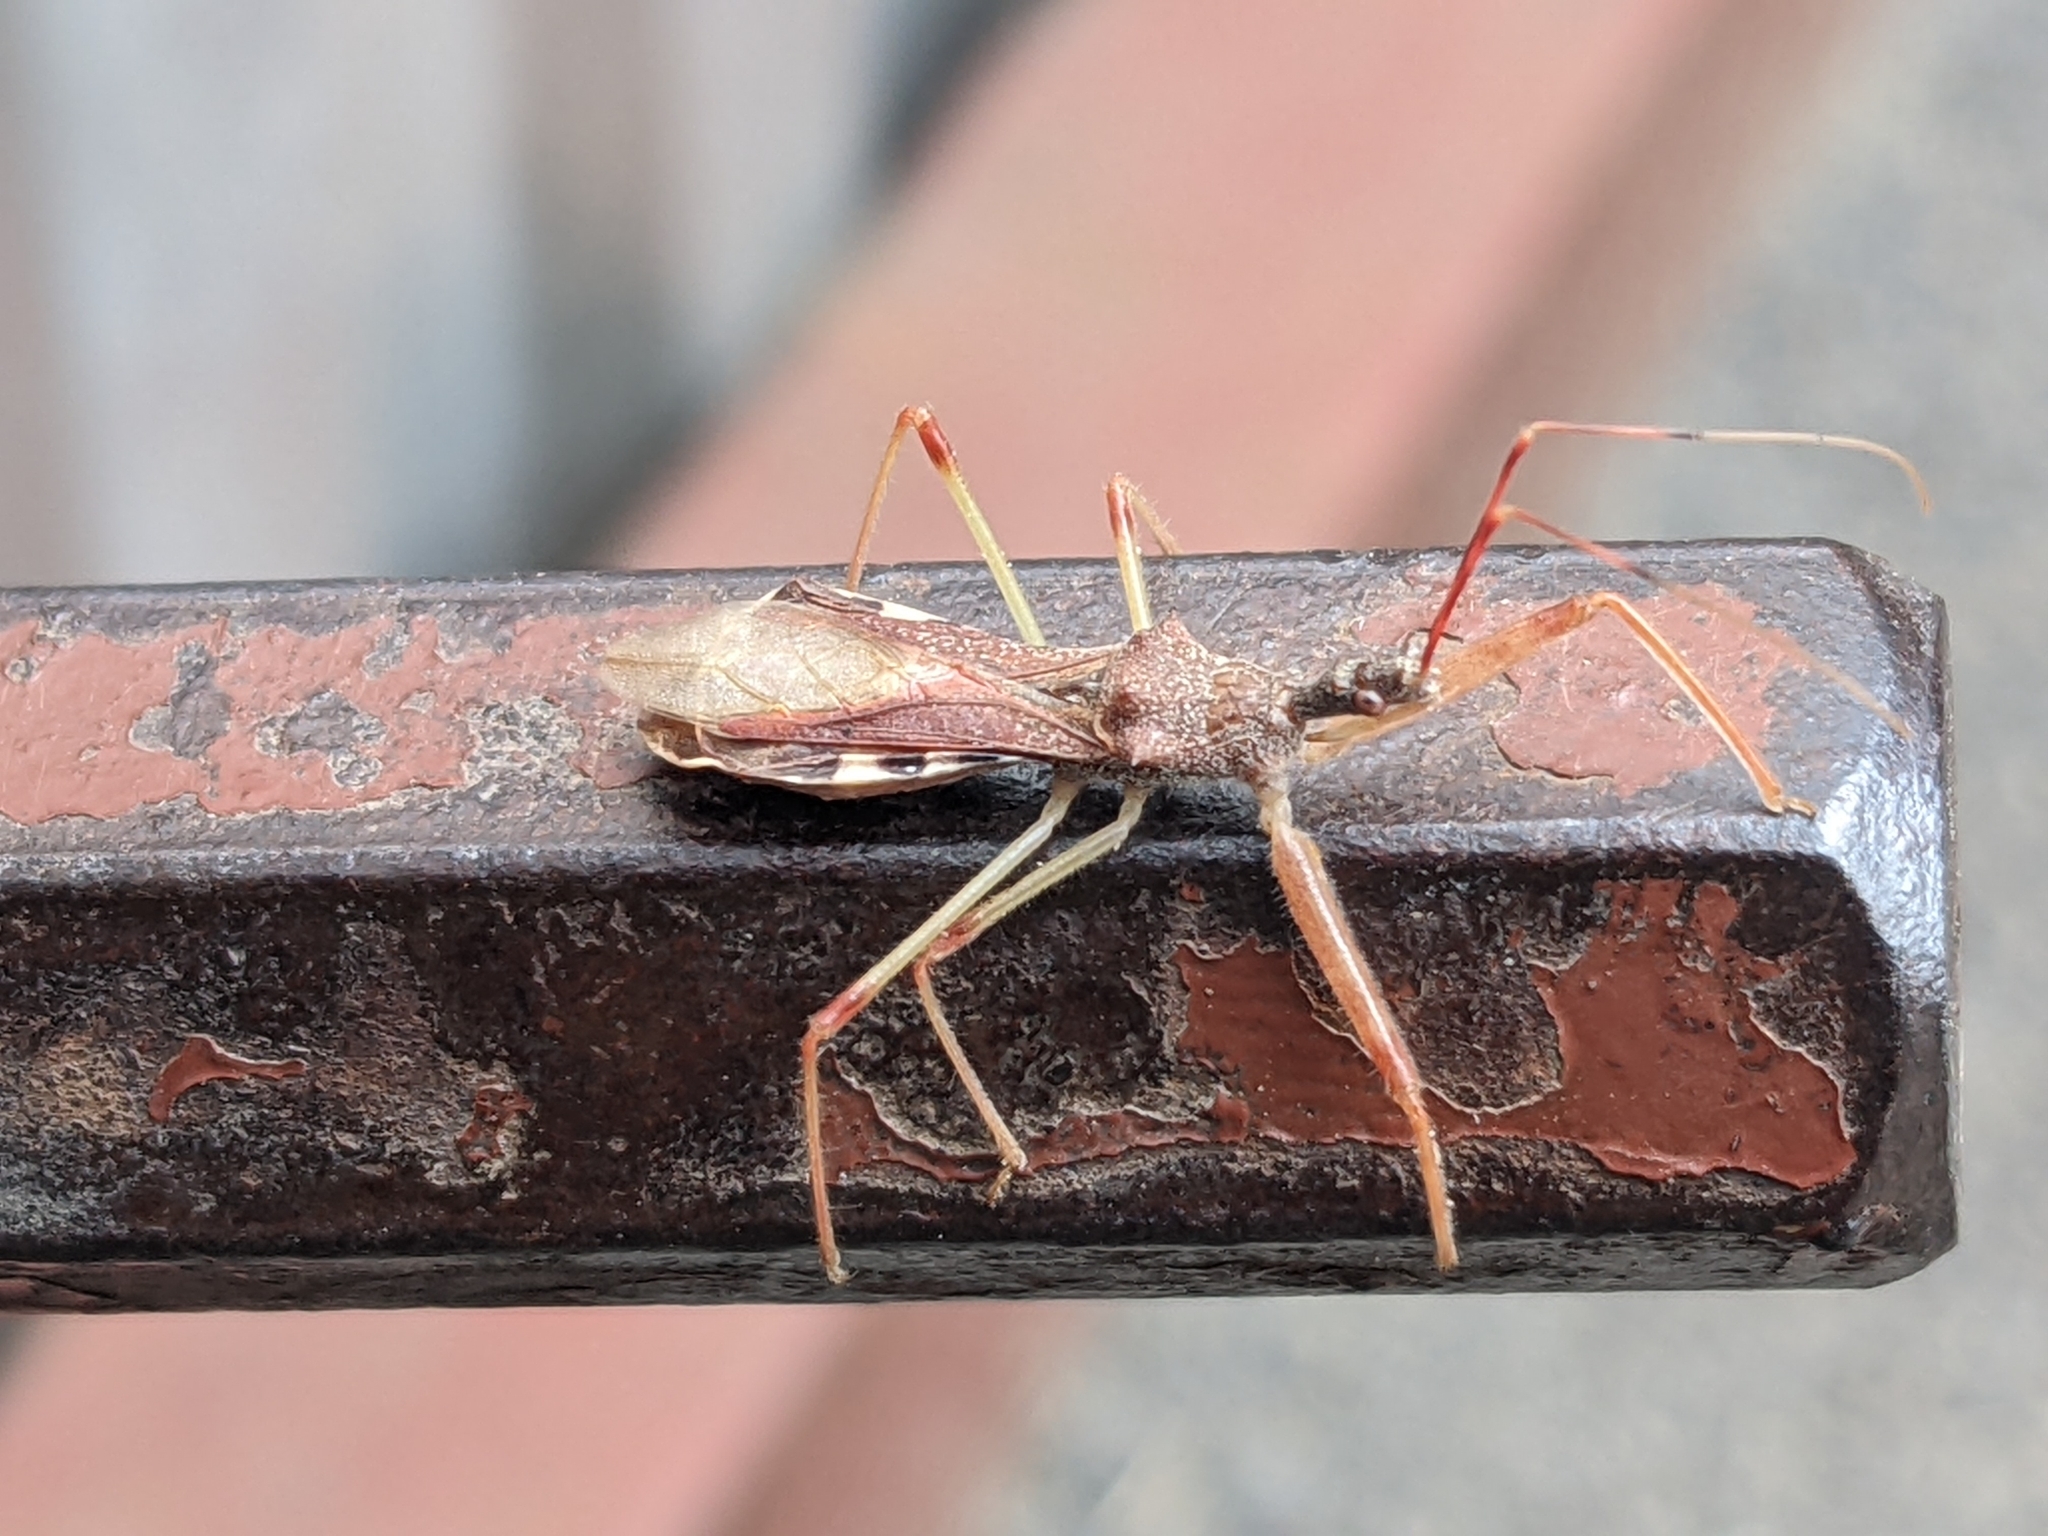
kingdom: Animalia
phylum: Arthropoda
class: Insecta
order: Hemiptera
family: Reduviidae
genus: Nagusta
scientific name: Nagusta goedelii
